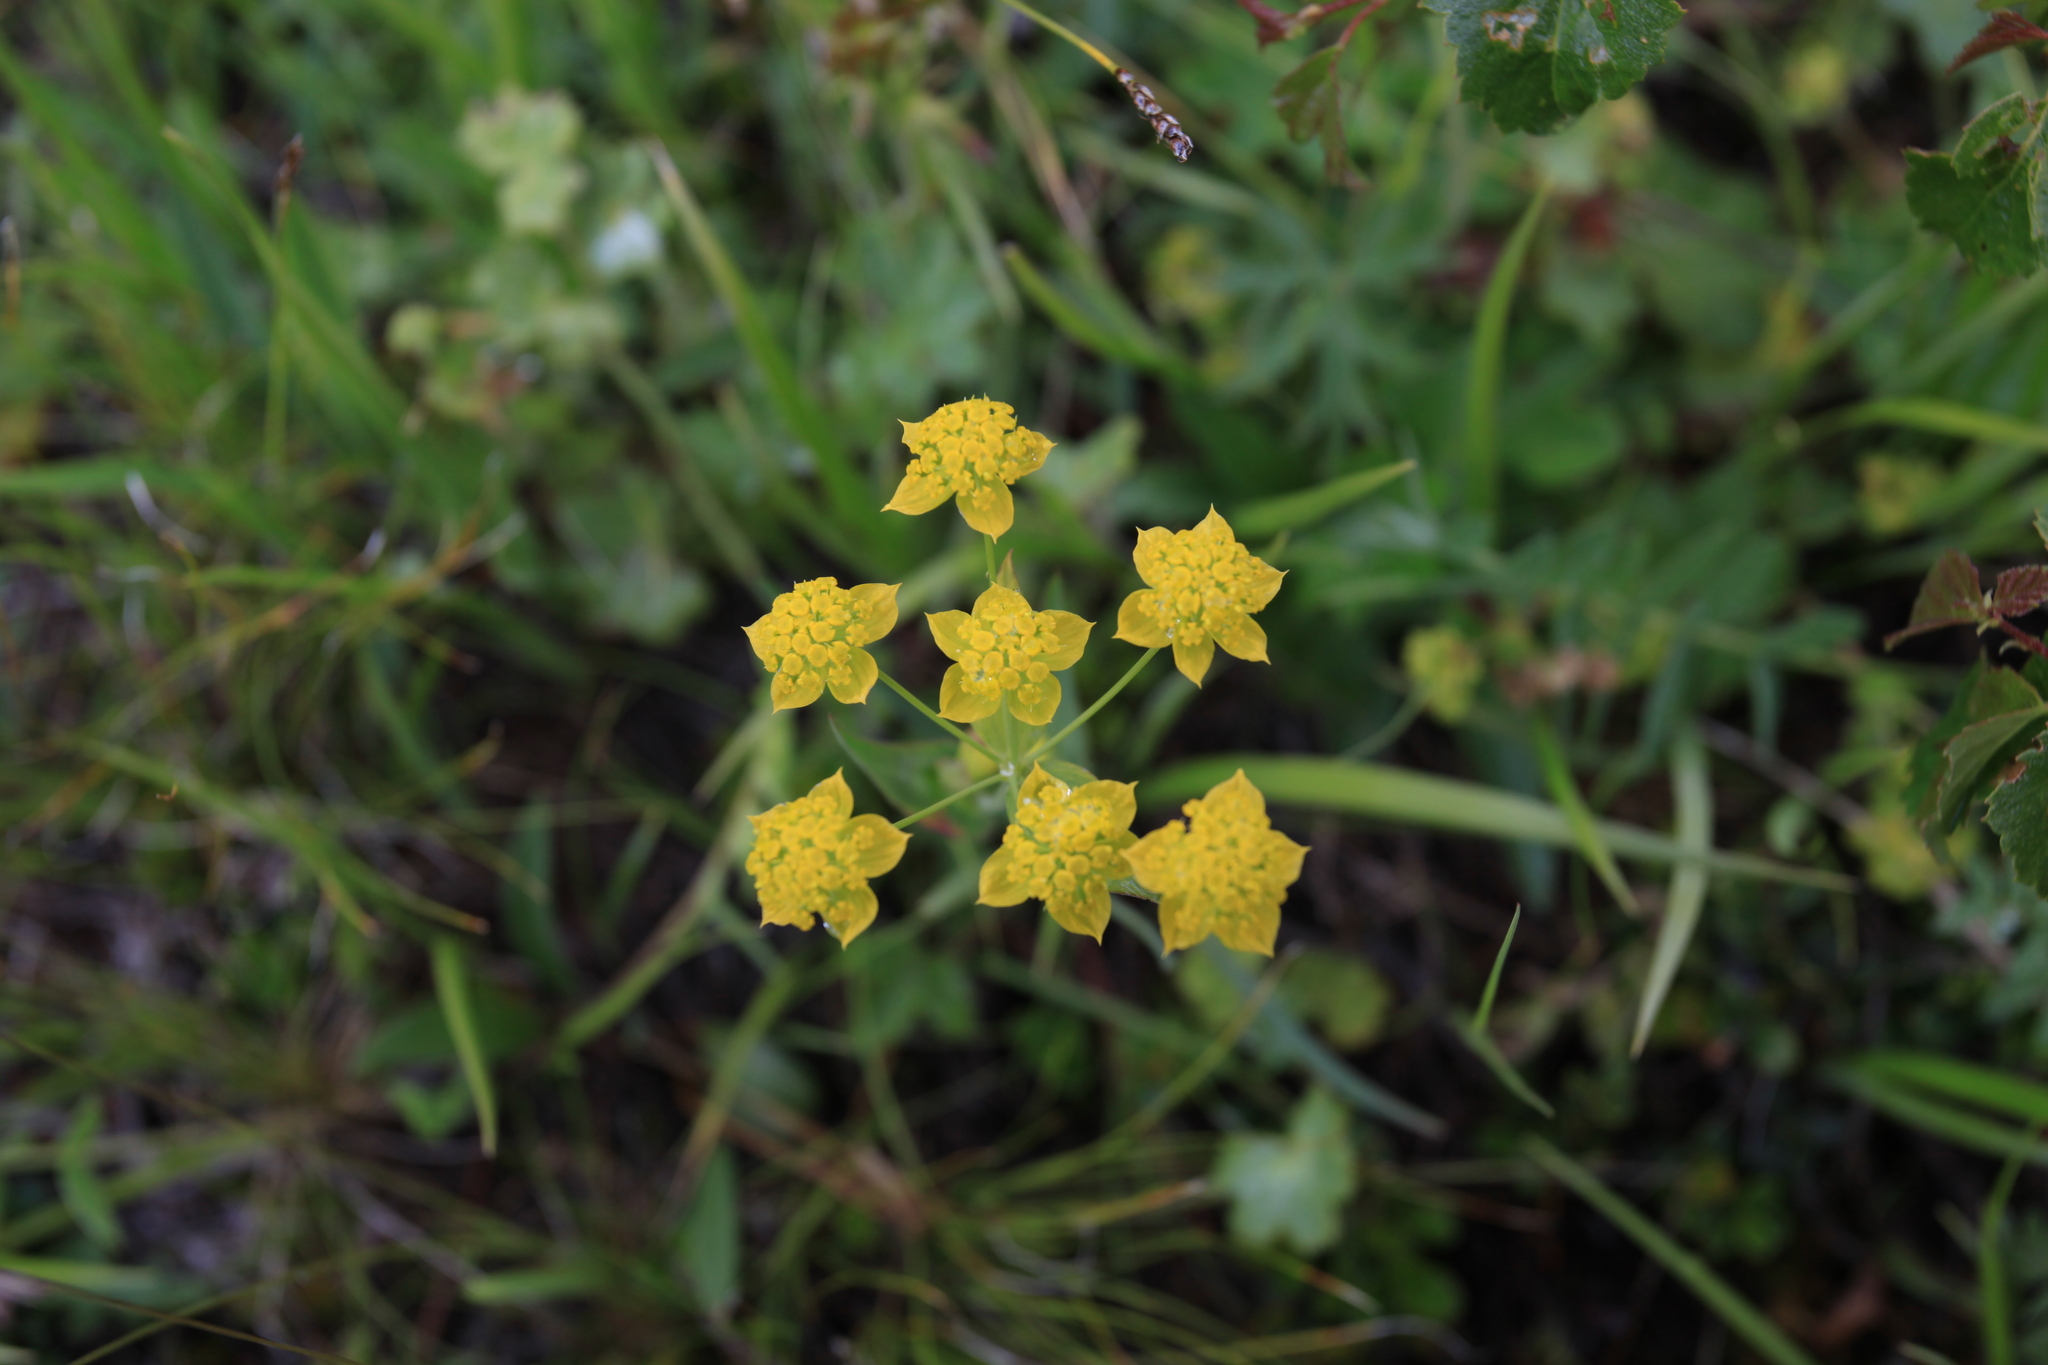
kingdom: Plantae
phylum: Tracheophyta
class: Magnoliopsida
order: Apiales
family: Apiaceae
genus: Bupleurum
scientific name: Bupleurum multinerve
